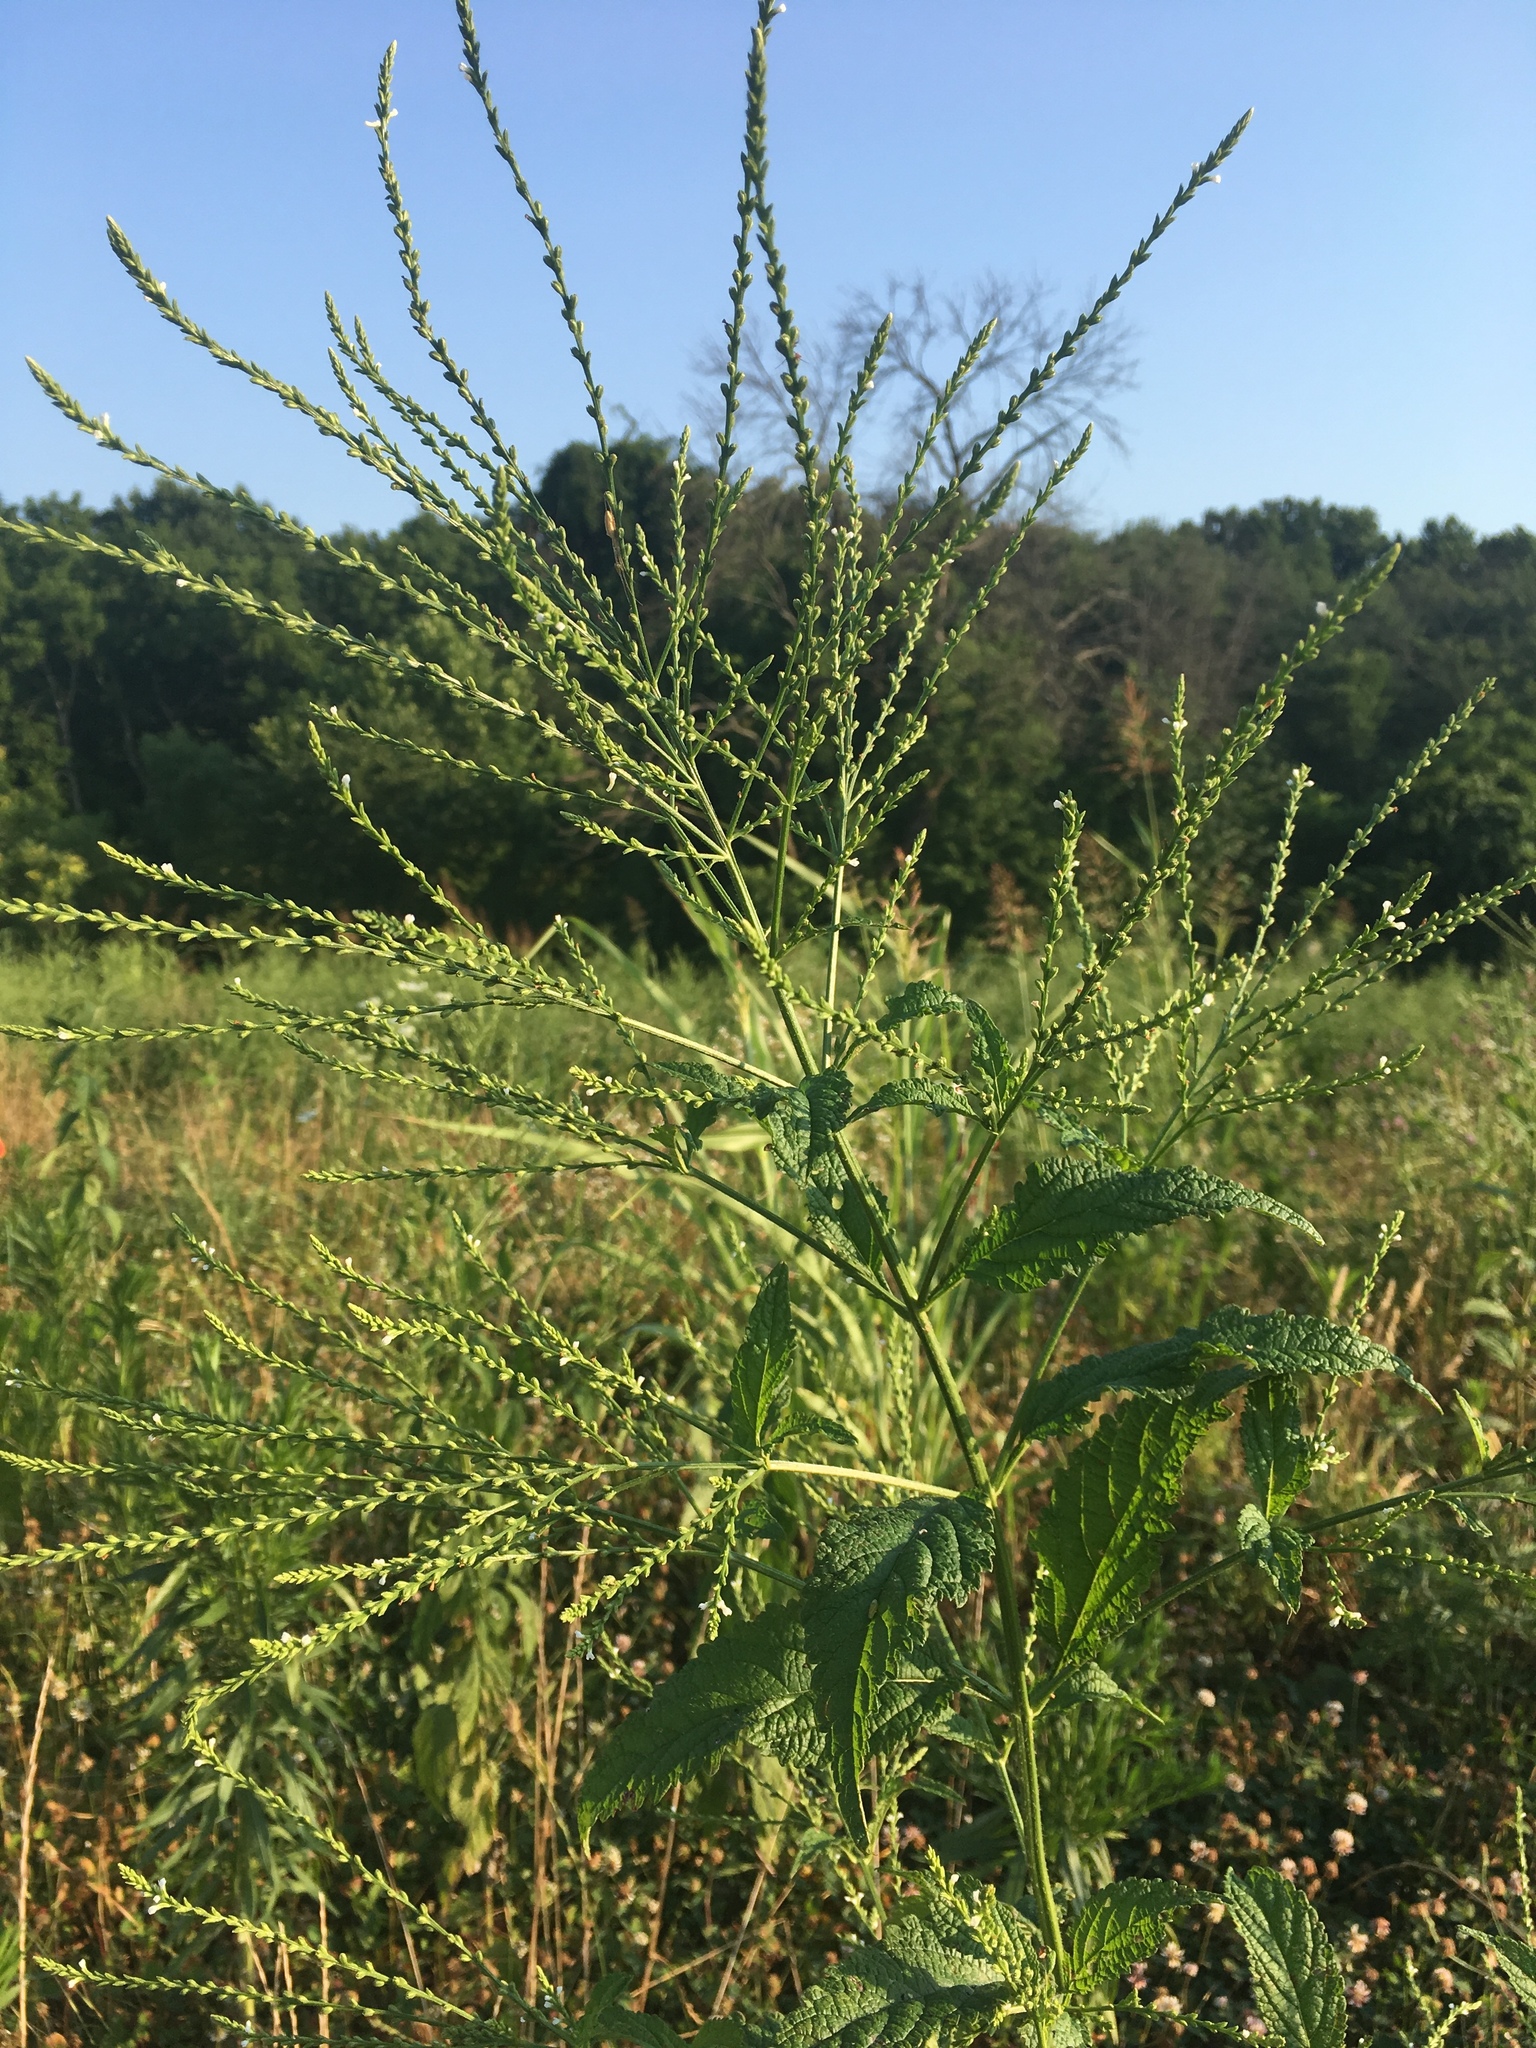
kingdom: Plantae
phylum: Tracheophyta
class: Magnoliopsida
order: Lamiales
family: Verbenaceae
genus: Verbena
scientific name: Verbena urticifolia
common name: Nettle-leaved vervain
